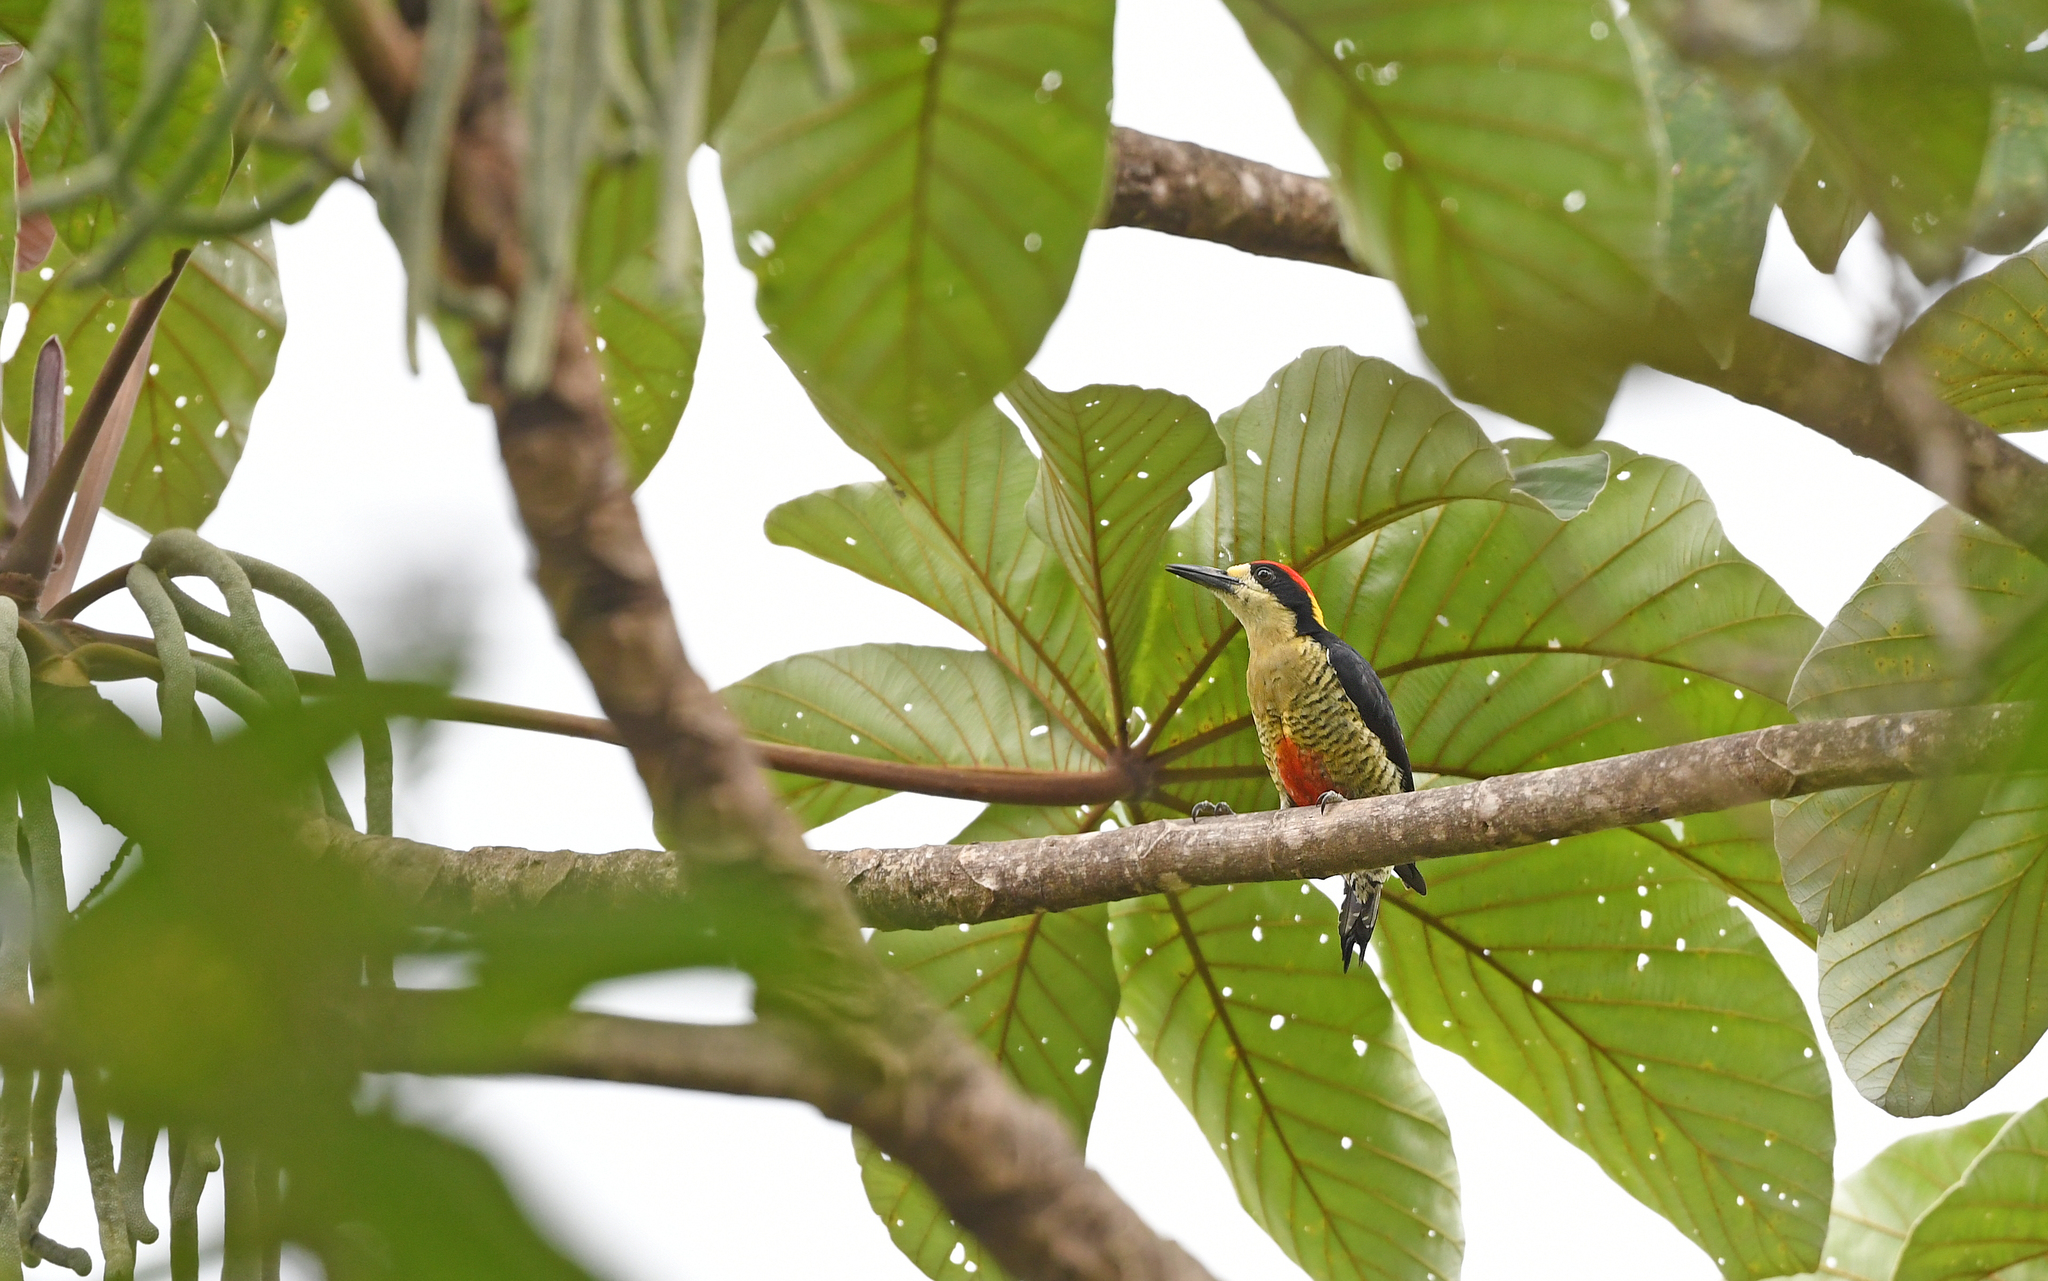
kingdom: Animalia
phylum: Chordata
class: Aves
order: Piciformes
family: Picidae
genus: Melanerpes
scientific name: Melanerpes pulcher
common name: Beautiful woodpecker
